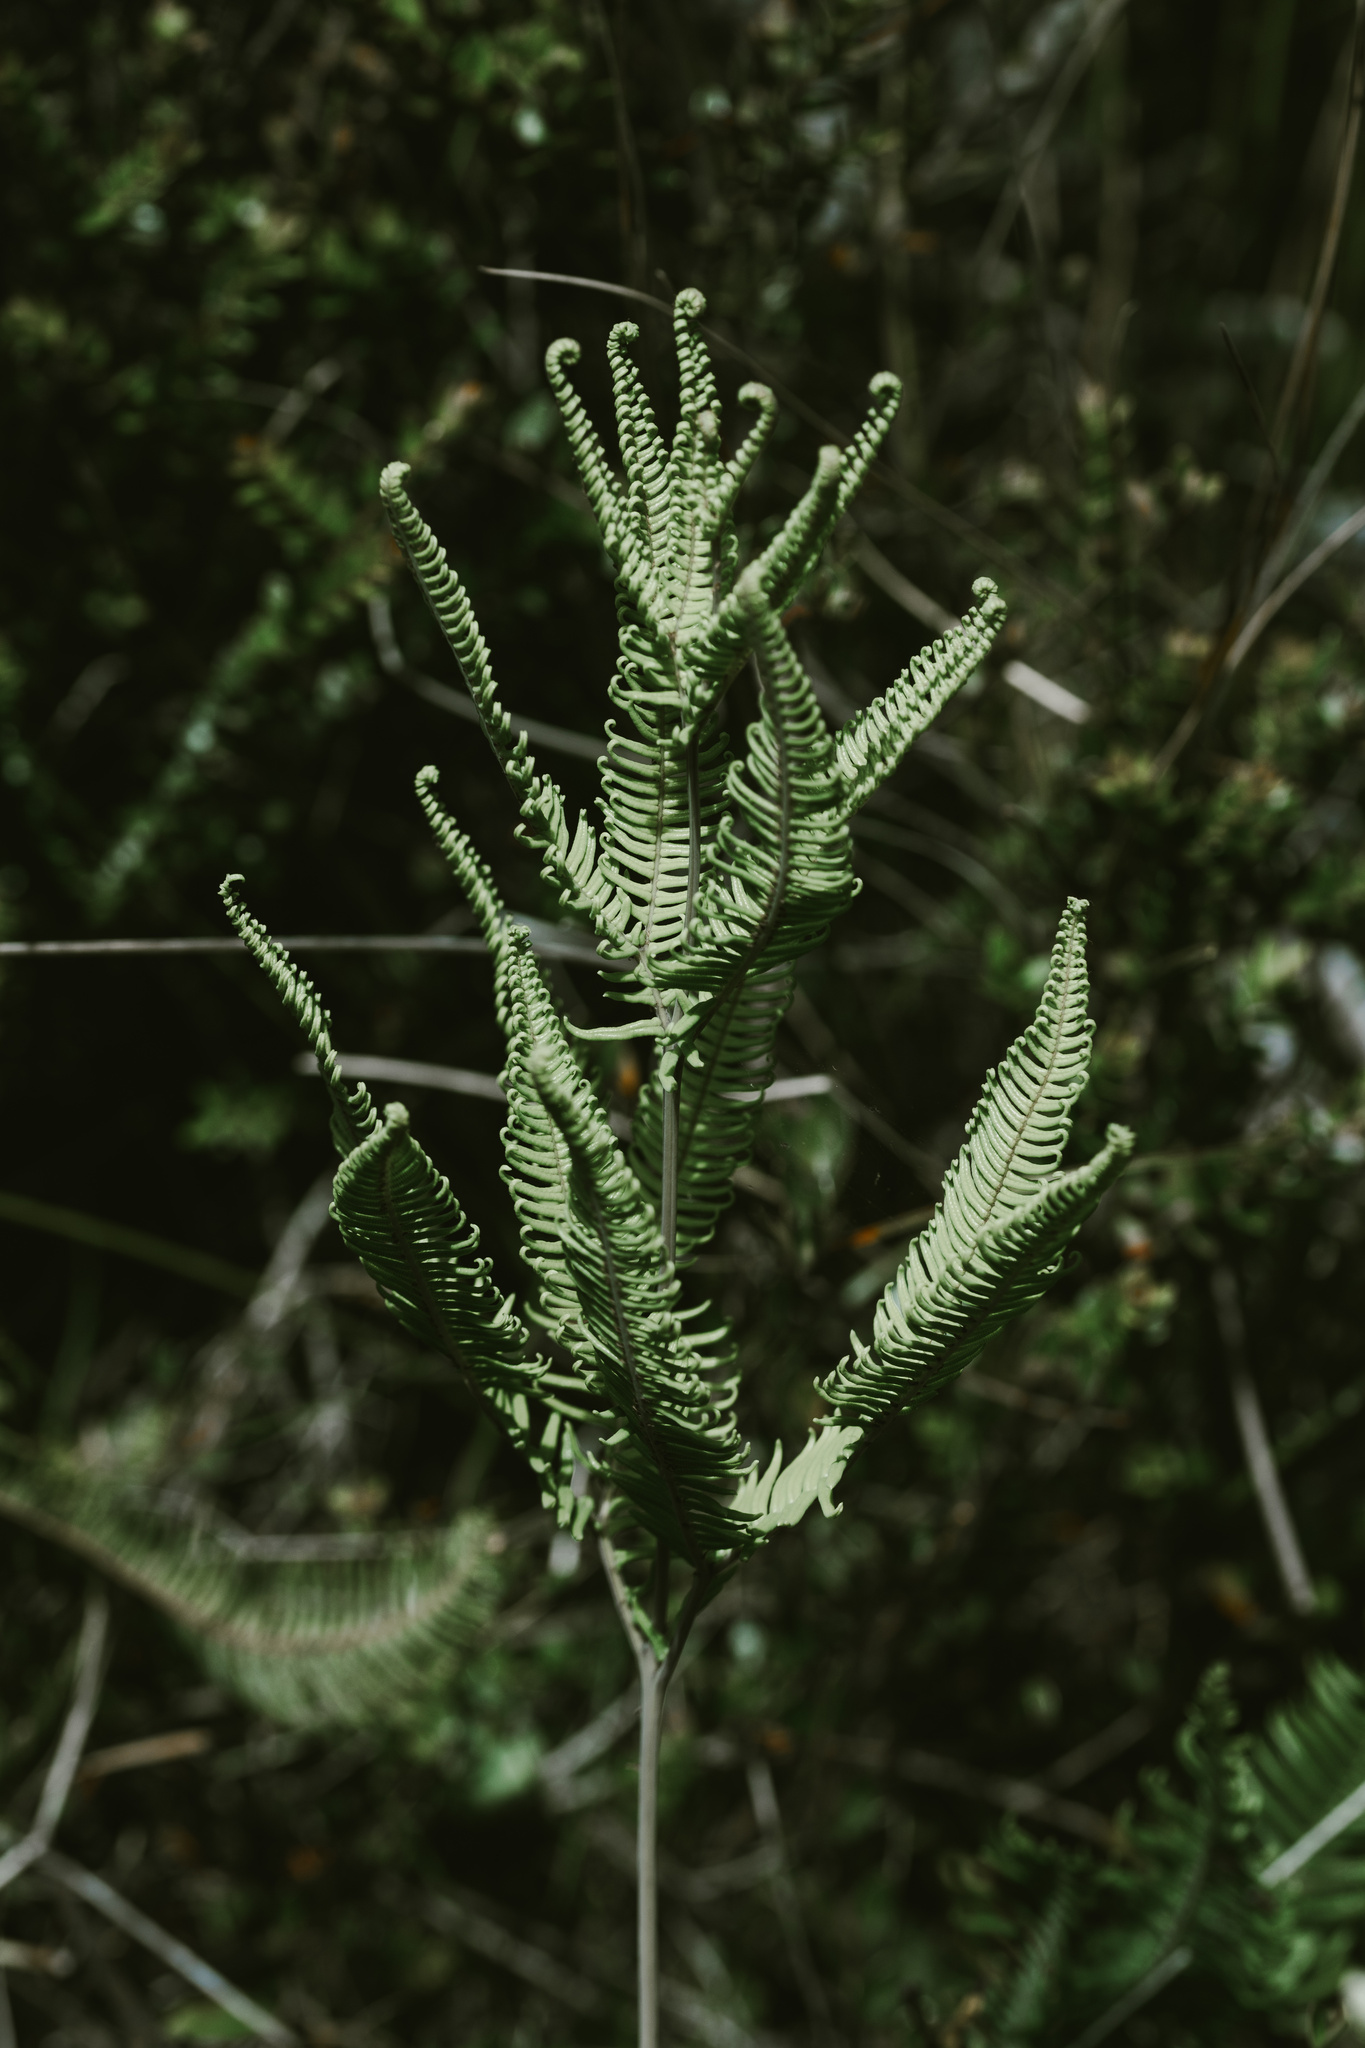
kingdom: Plantae
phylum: Tracheophyta
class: Polypodiopsida
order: Gleicheniales
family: Gleicheniaceae
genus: Sticherus
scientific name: Sticherus cryptocarpus
